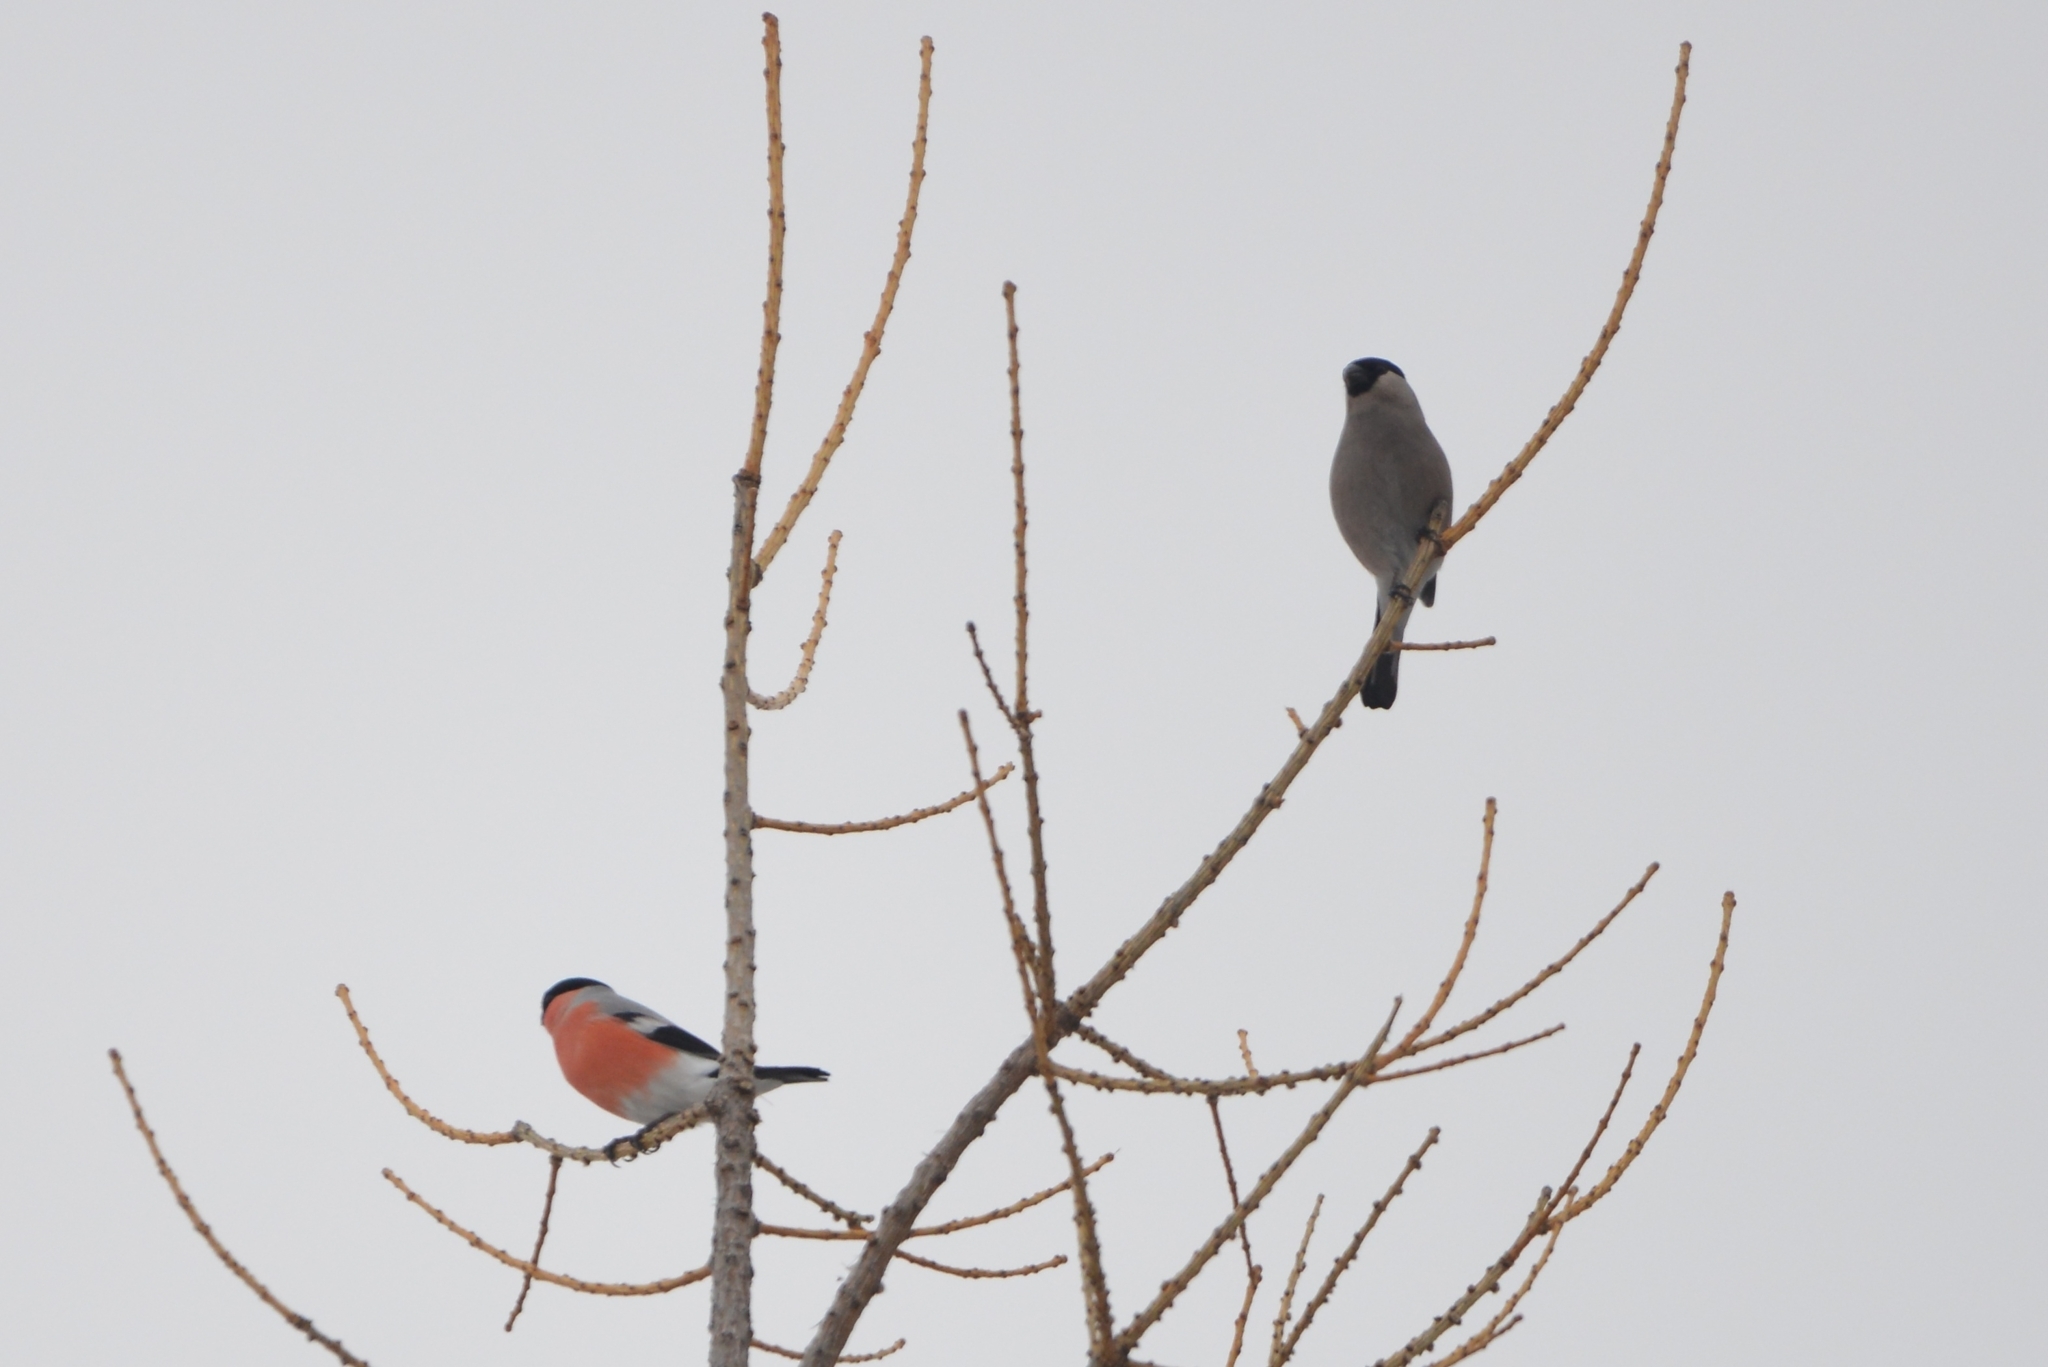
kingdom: Animalia
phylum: Chordata
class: Aves
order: Passeriformes
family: Fringillidae
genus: Pyrrhula
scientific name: Pyrrhula pyrrhula
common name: Eurasian bullfinch
